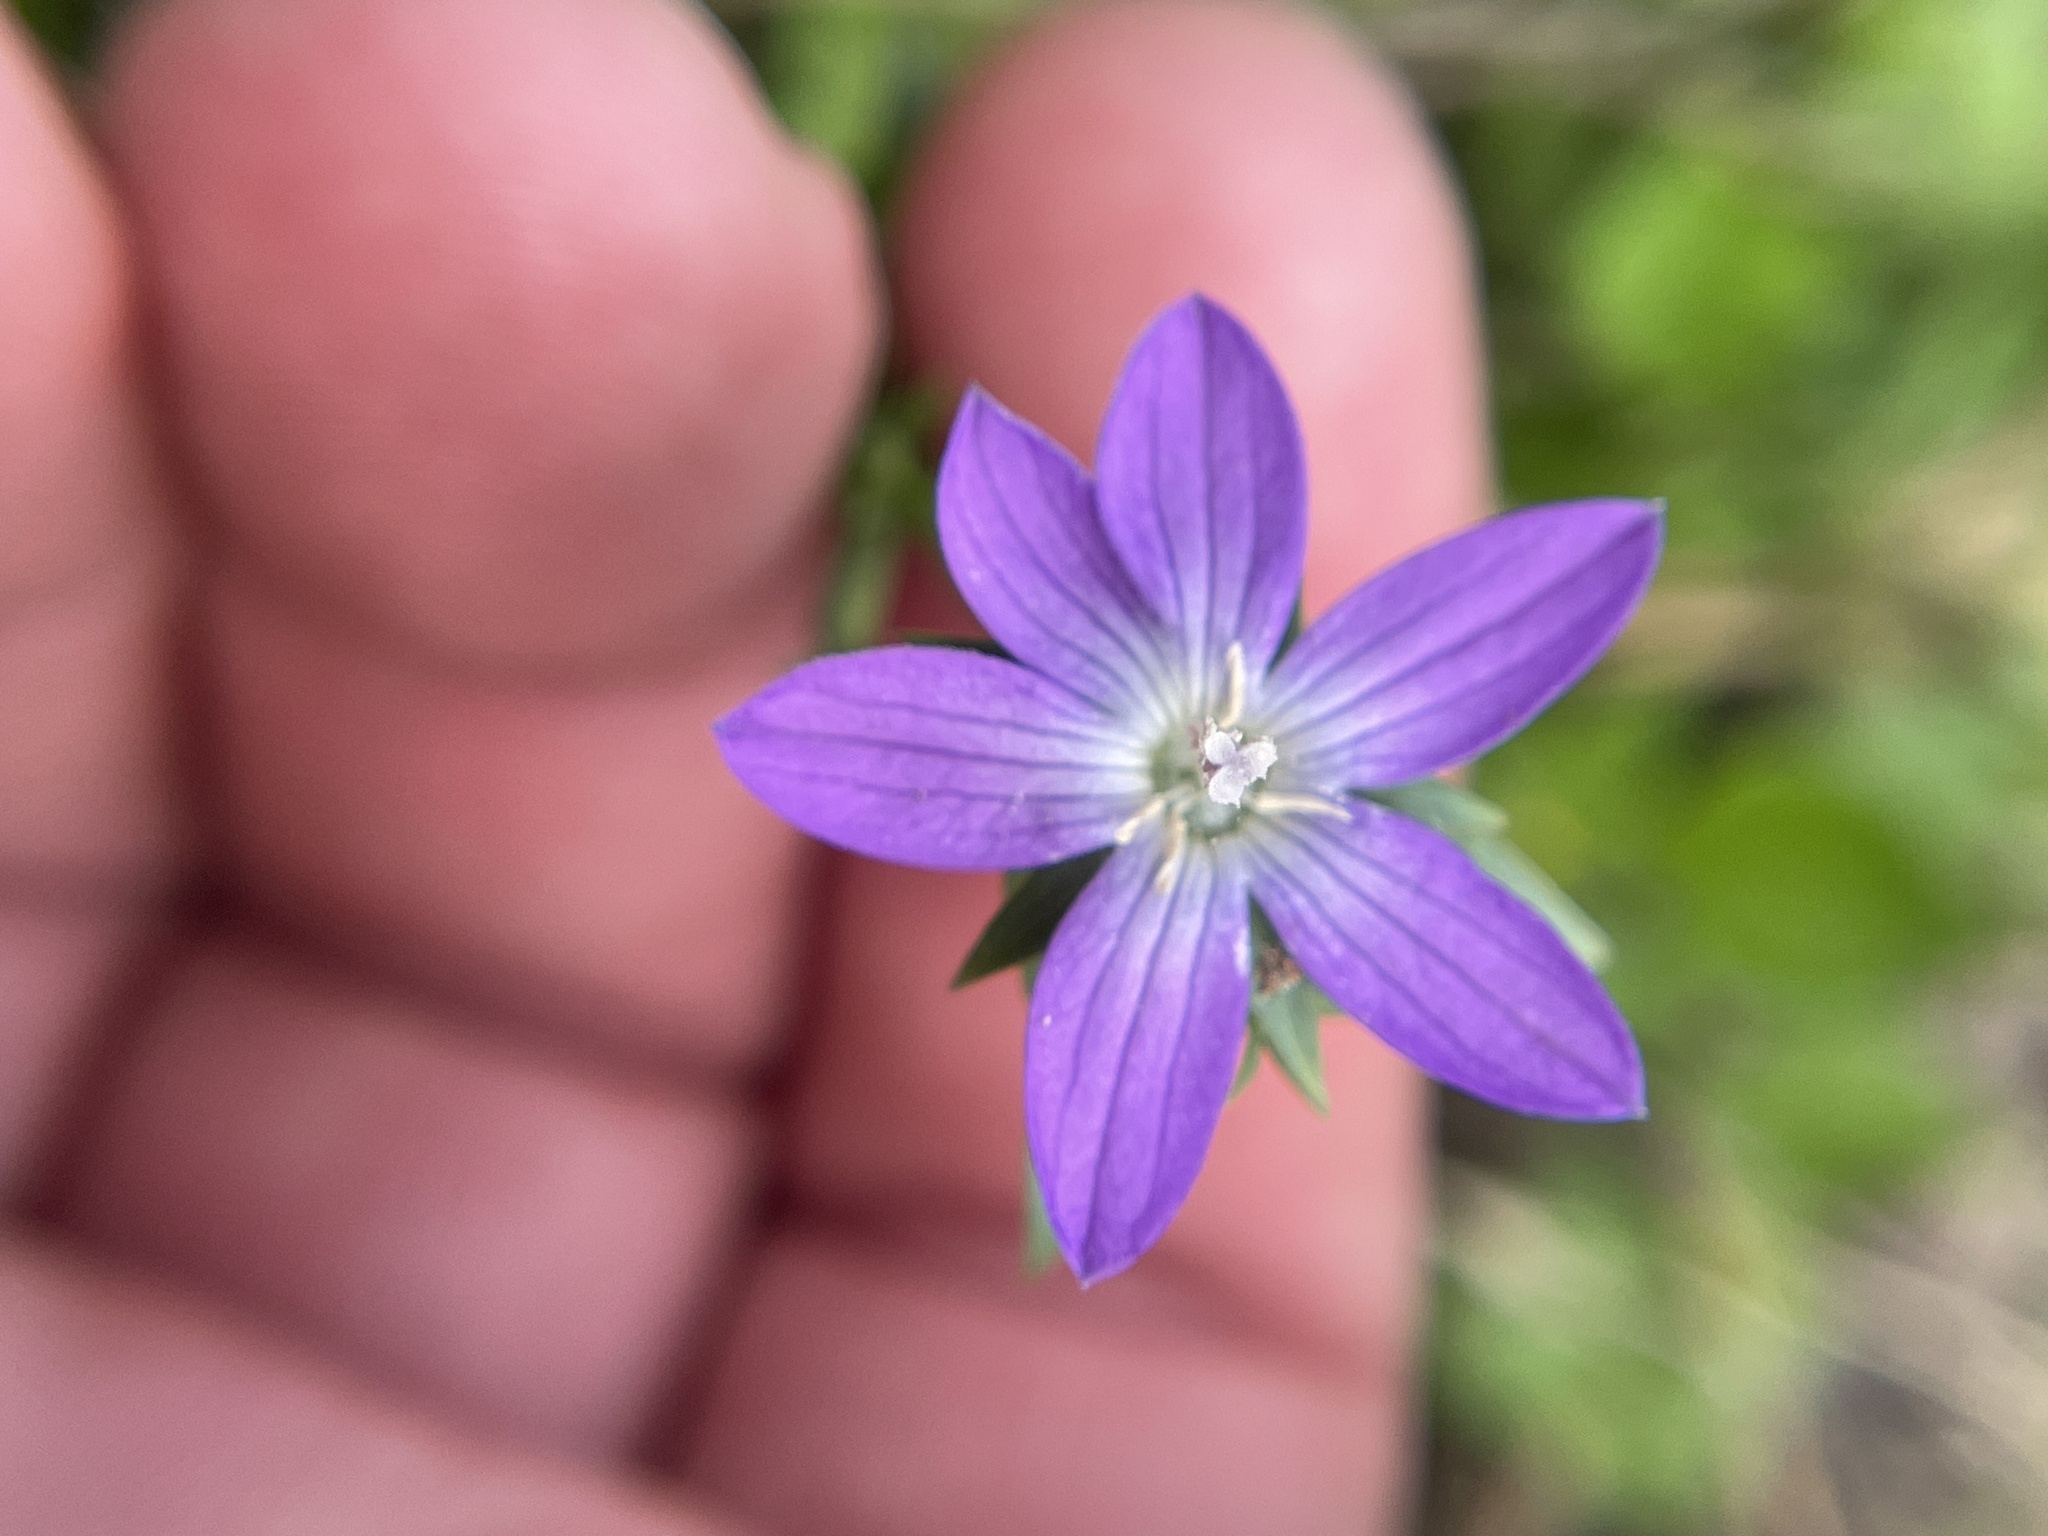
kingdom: Plantae
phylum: Tracheophyta
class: Magnoliopsida
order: Asterales
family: Campanulaceae
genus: Triodanis
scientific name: Triodanis biflora
